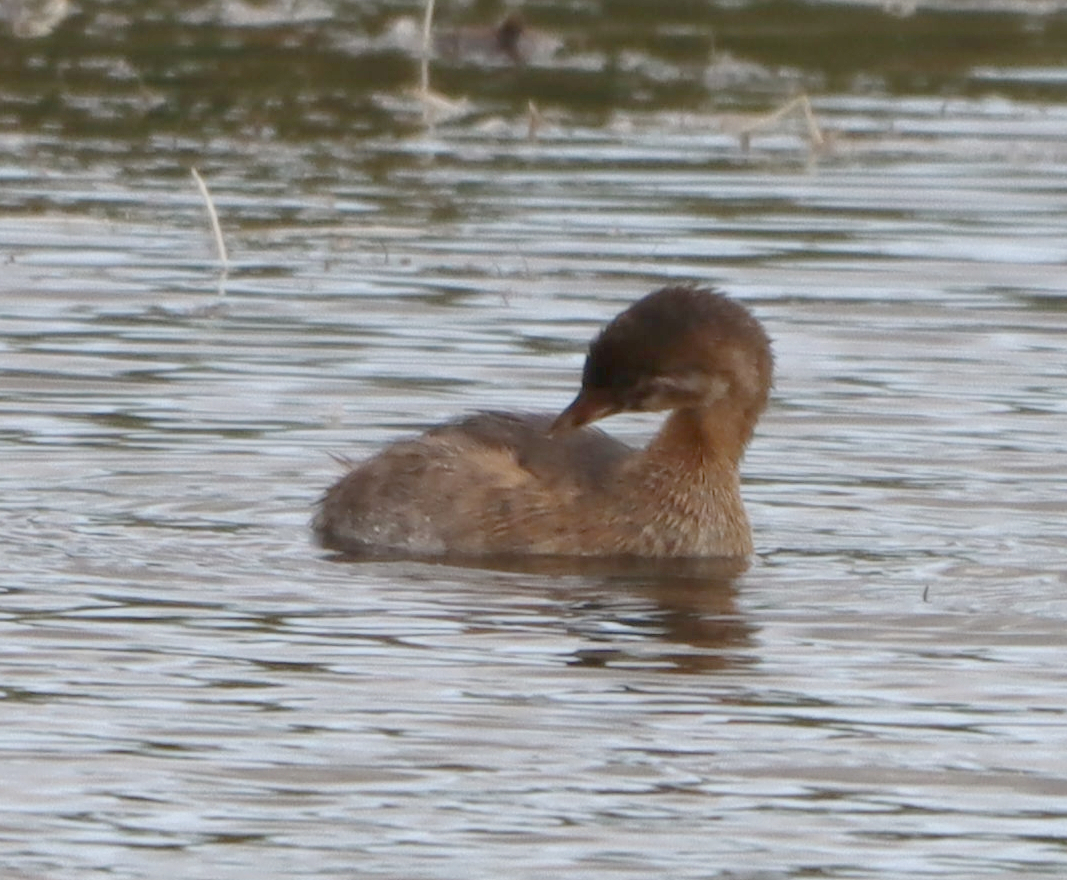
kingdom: Animalia
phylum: Chordata
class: Aves
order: Podicipediformes
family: Podicipedidae
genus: Podilymbus
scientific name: Podilymbus podiceps
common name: Pied-billed grebe
